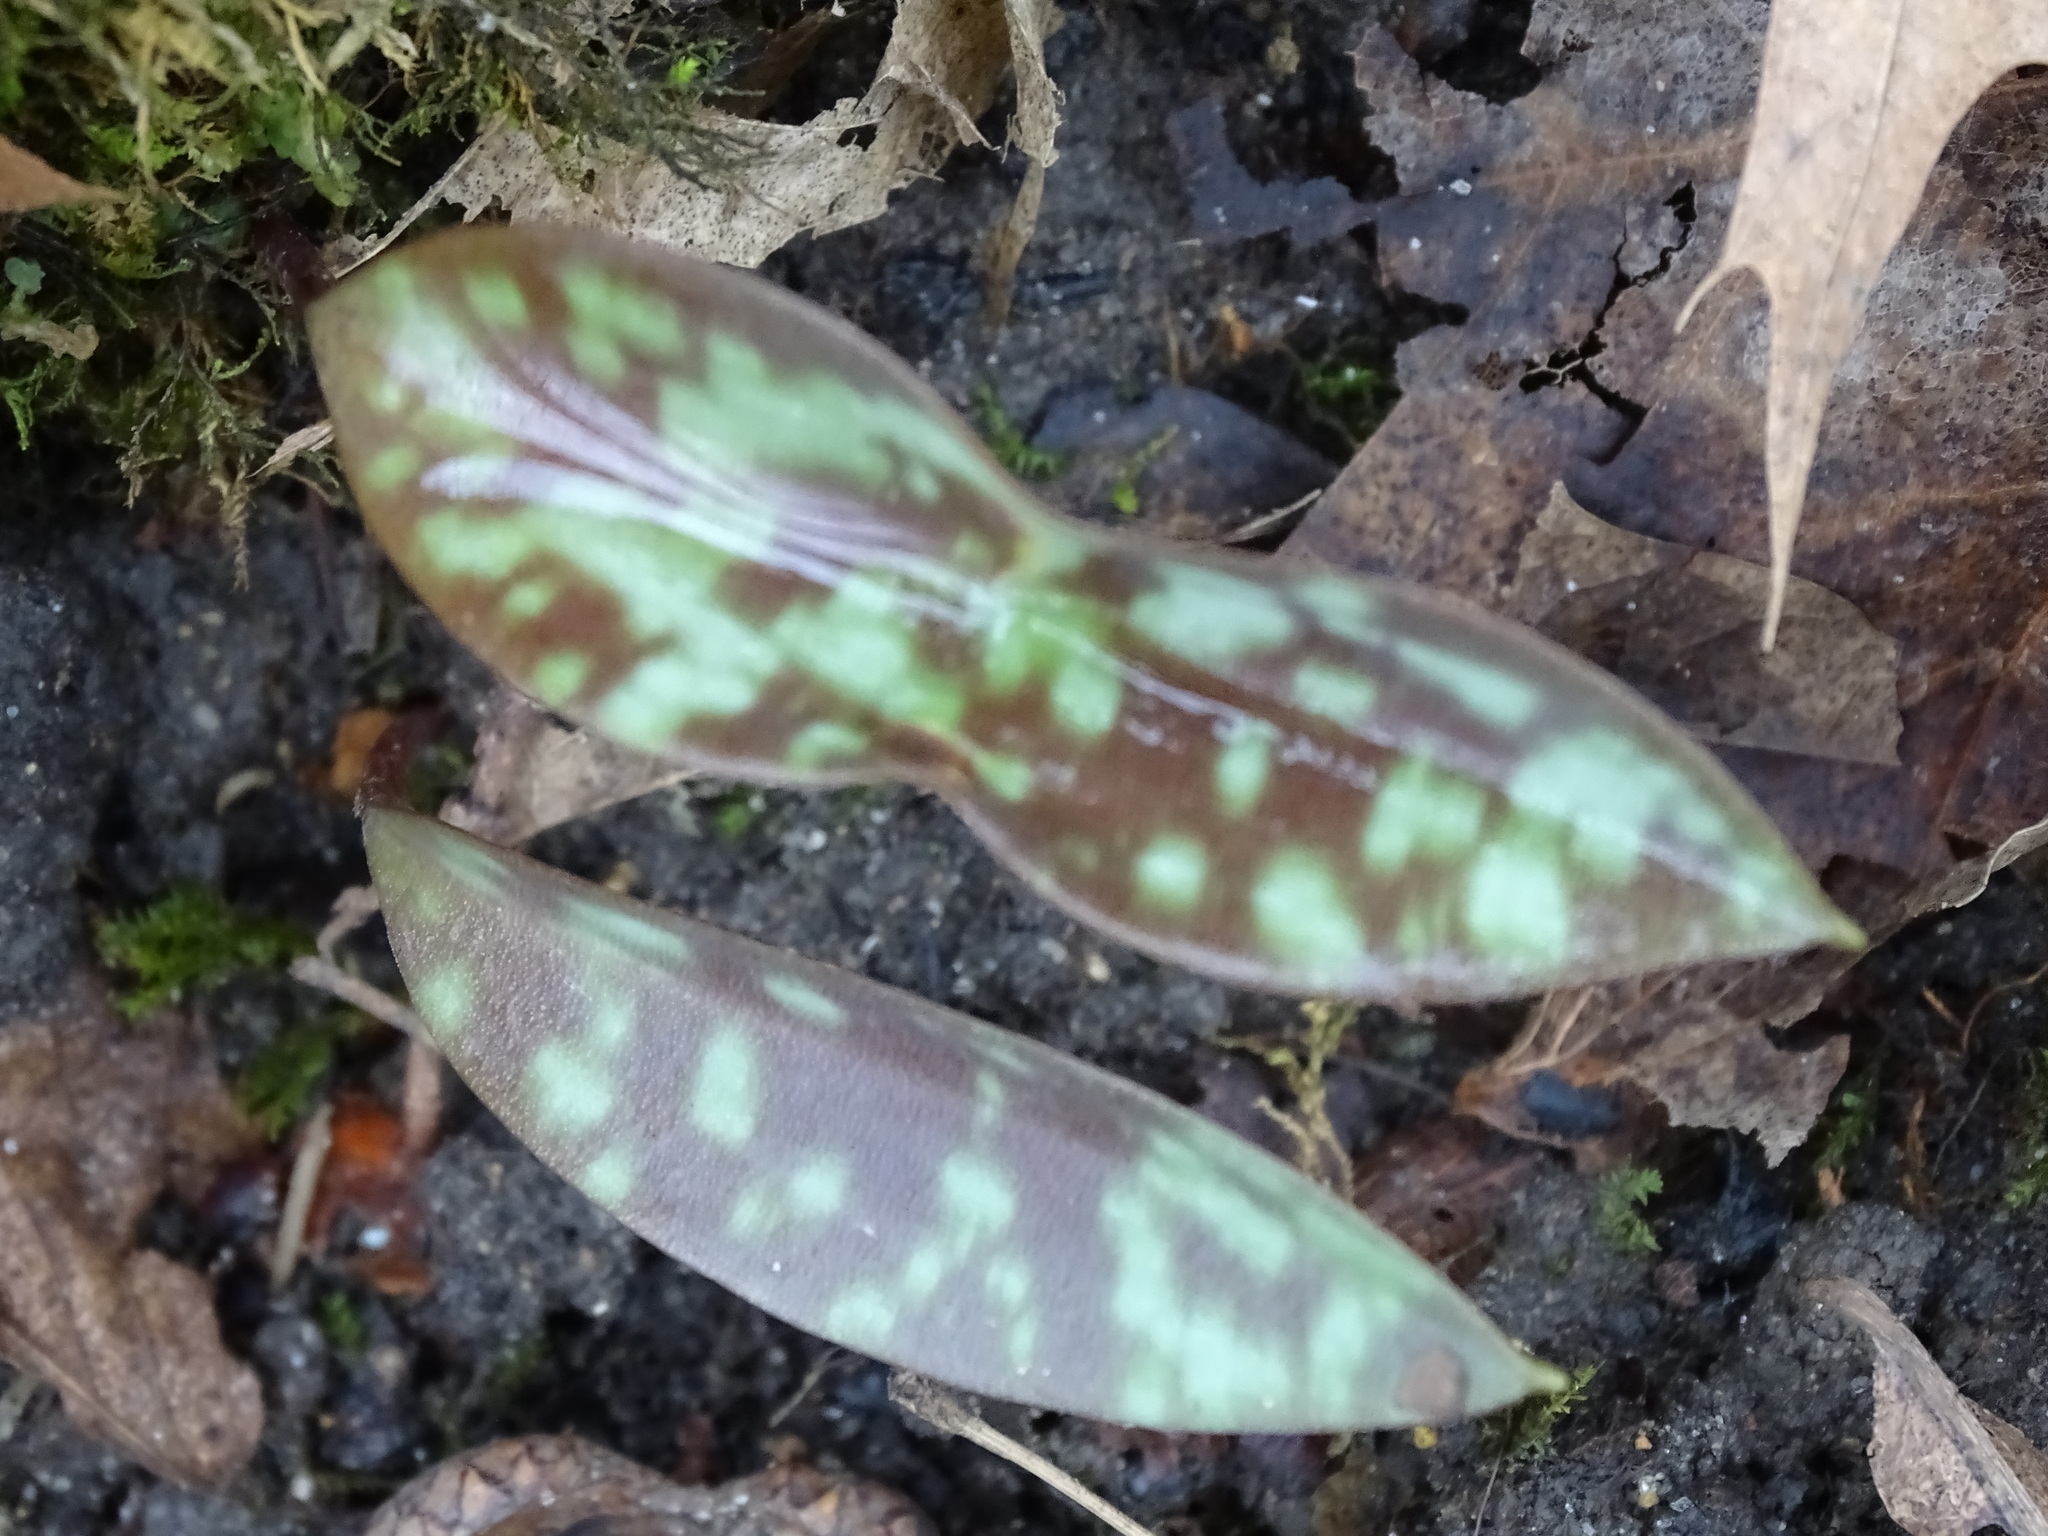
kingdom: Plantae
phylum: Tracheophyta
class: Liliopsida
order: Liliales
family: Liliaceae
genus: Erythronium
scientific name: Erythronium americanum
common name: Yellow adder's-tongue
